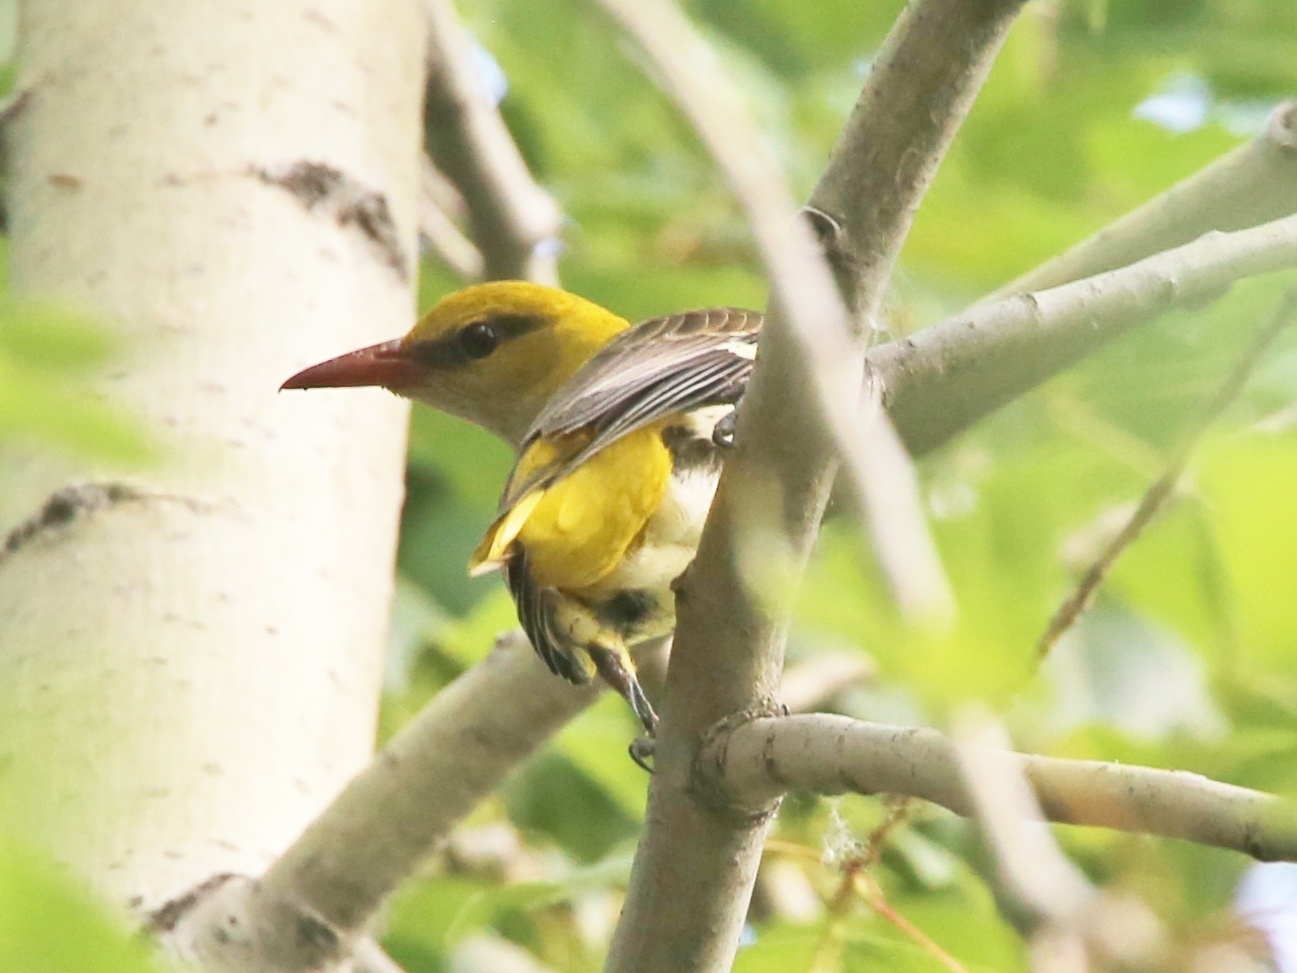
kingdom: Animalia
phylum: Chordata
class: Aves
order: Passeriformes
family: Oriolidae
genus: Oriolus
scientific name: Oriolus oriolus
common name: Eurasian golden oriole
